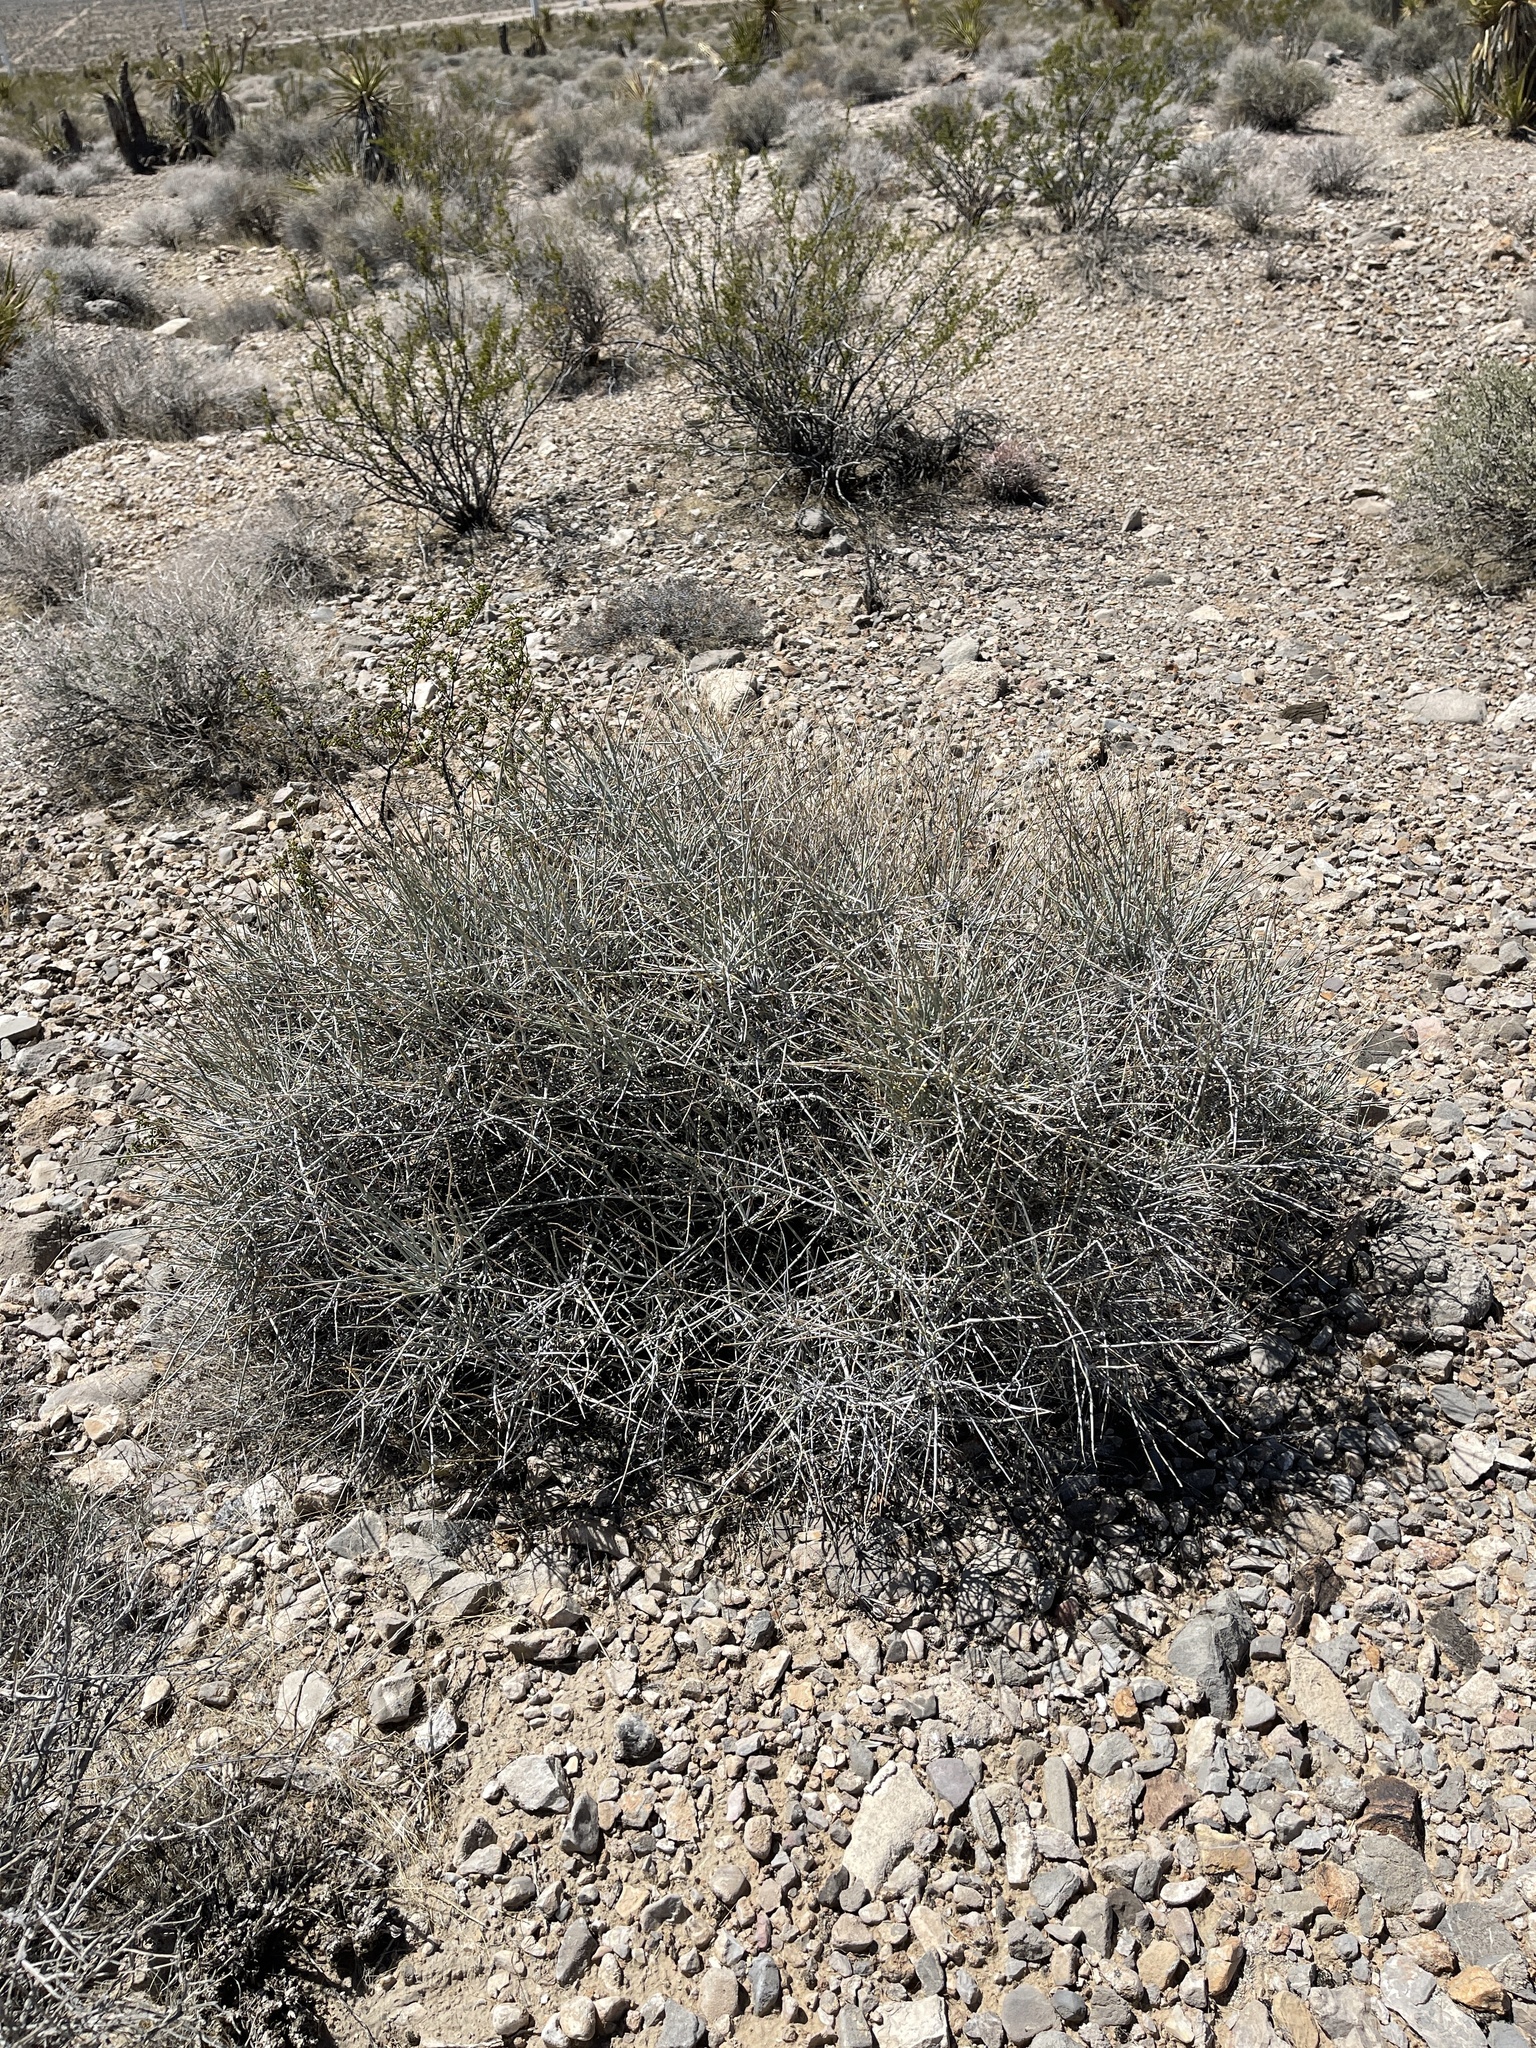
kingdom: Plantae
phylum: Tracheophyta
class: Gnetopsida
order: Ephedrales
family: Ephedraceae
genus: Ephedra
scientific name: Ephedra nevadensis
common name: Gray ephedra
